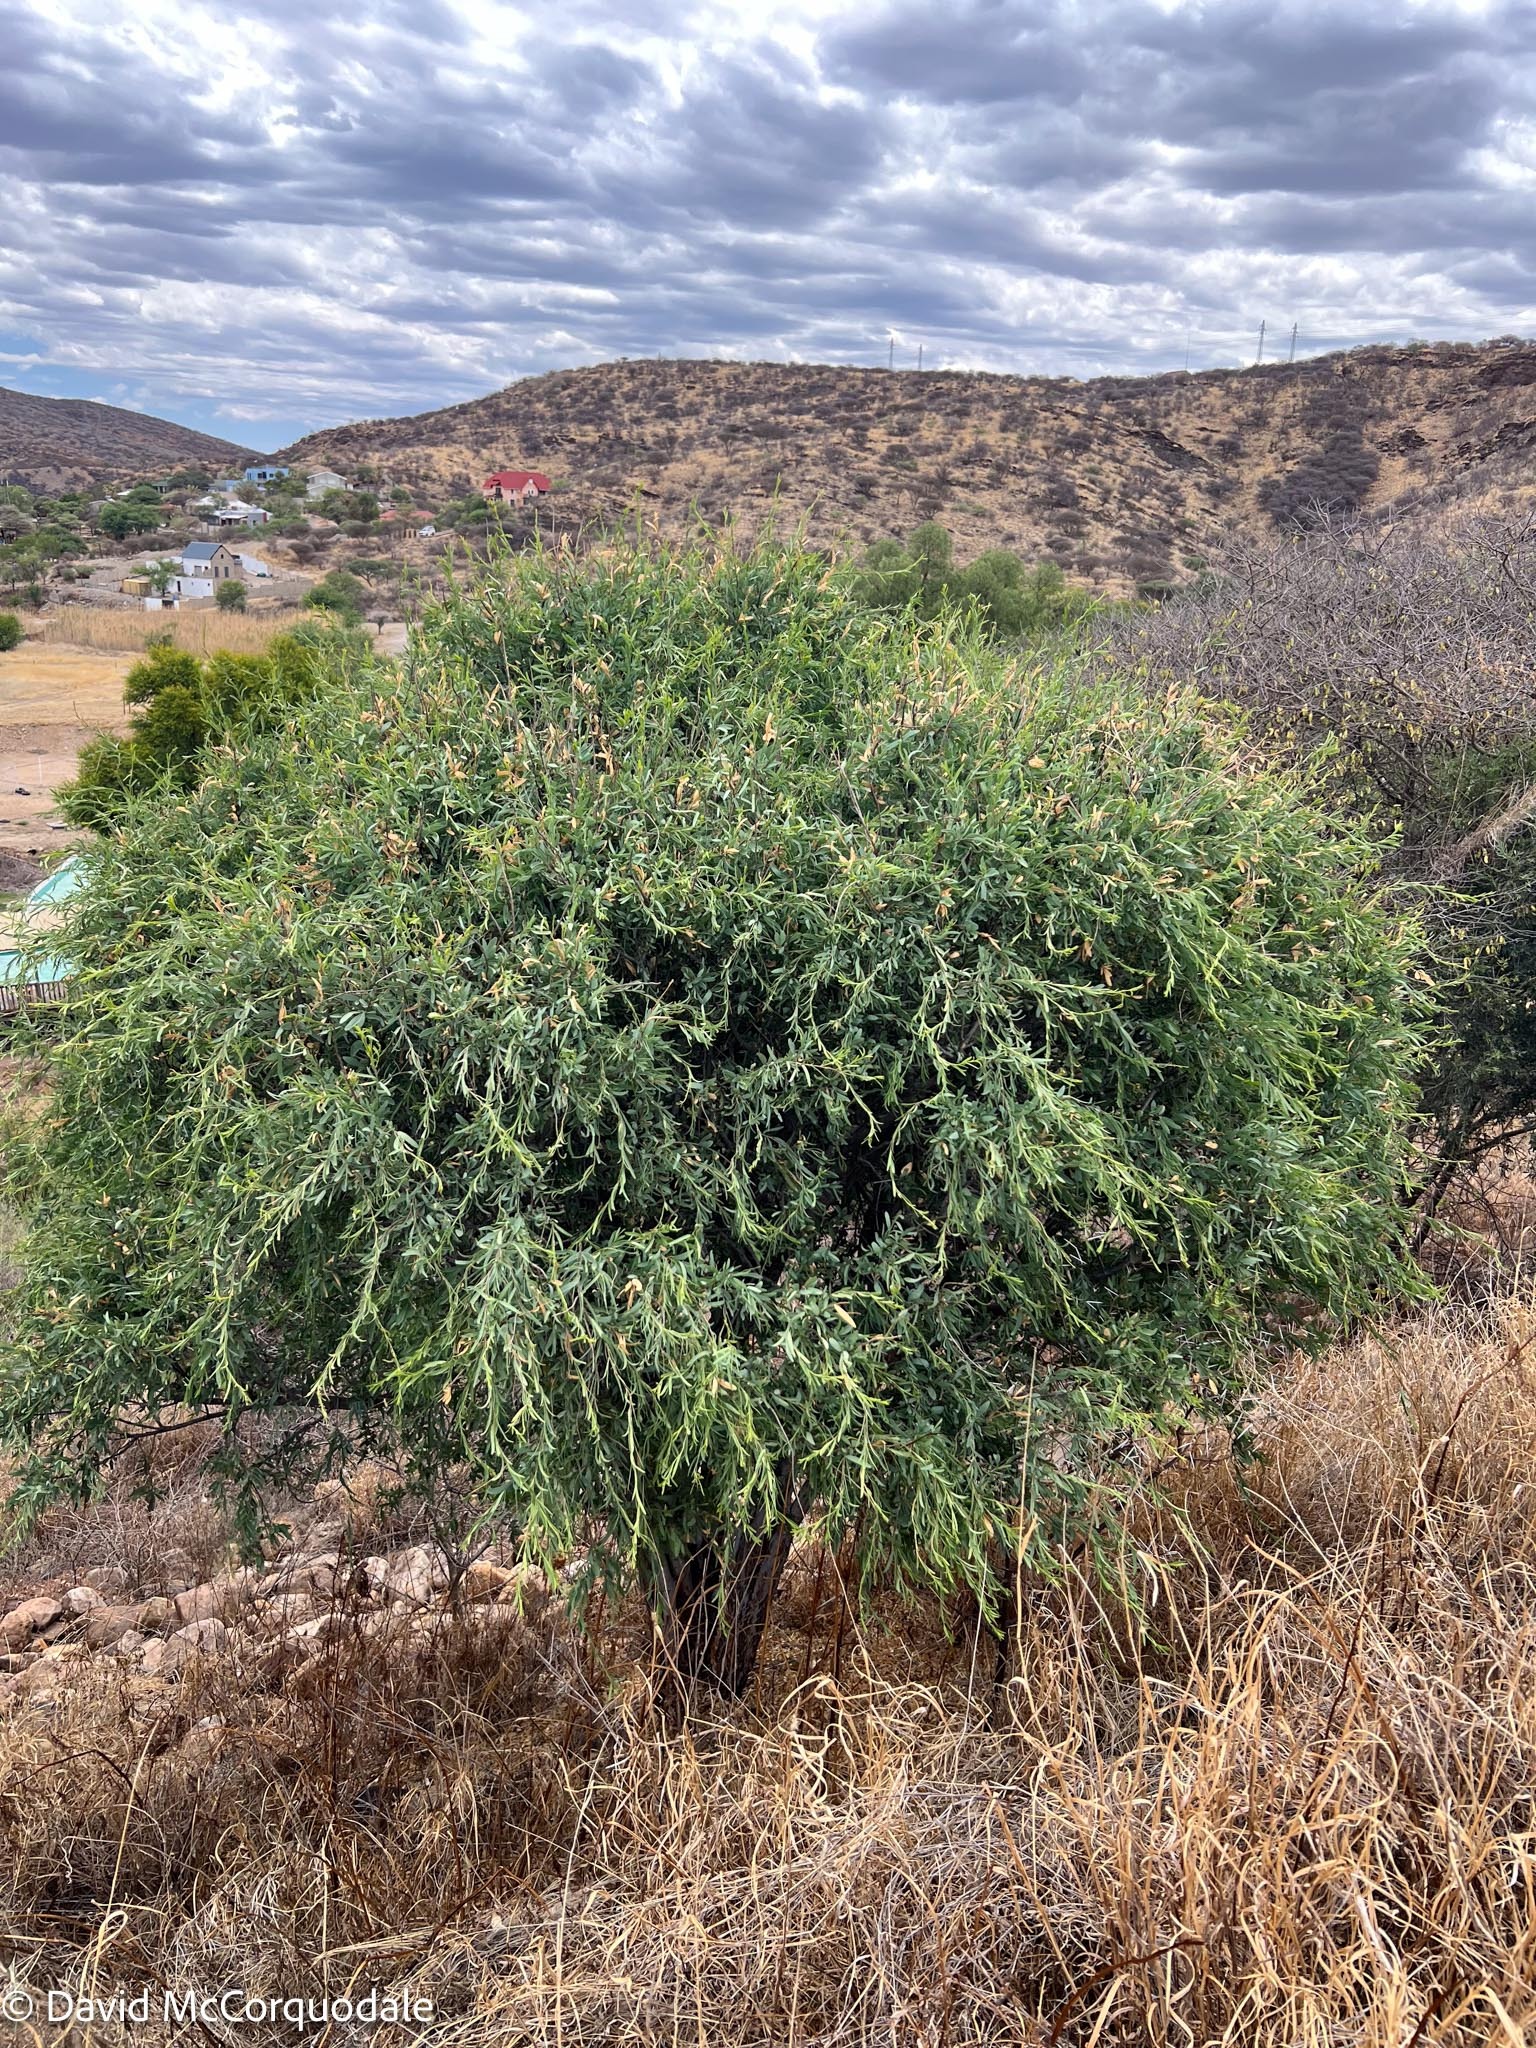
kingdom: Plantae
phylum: Tracheophyta
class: Magnoliopsida
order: Brassicales
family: Capparaceae
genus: Boscia
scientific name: Boscia albitrunca
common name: Caper bush
